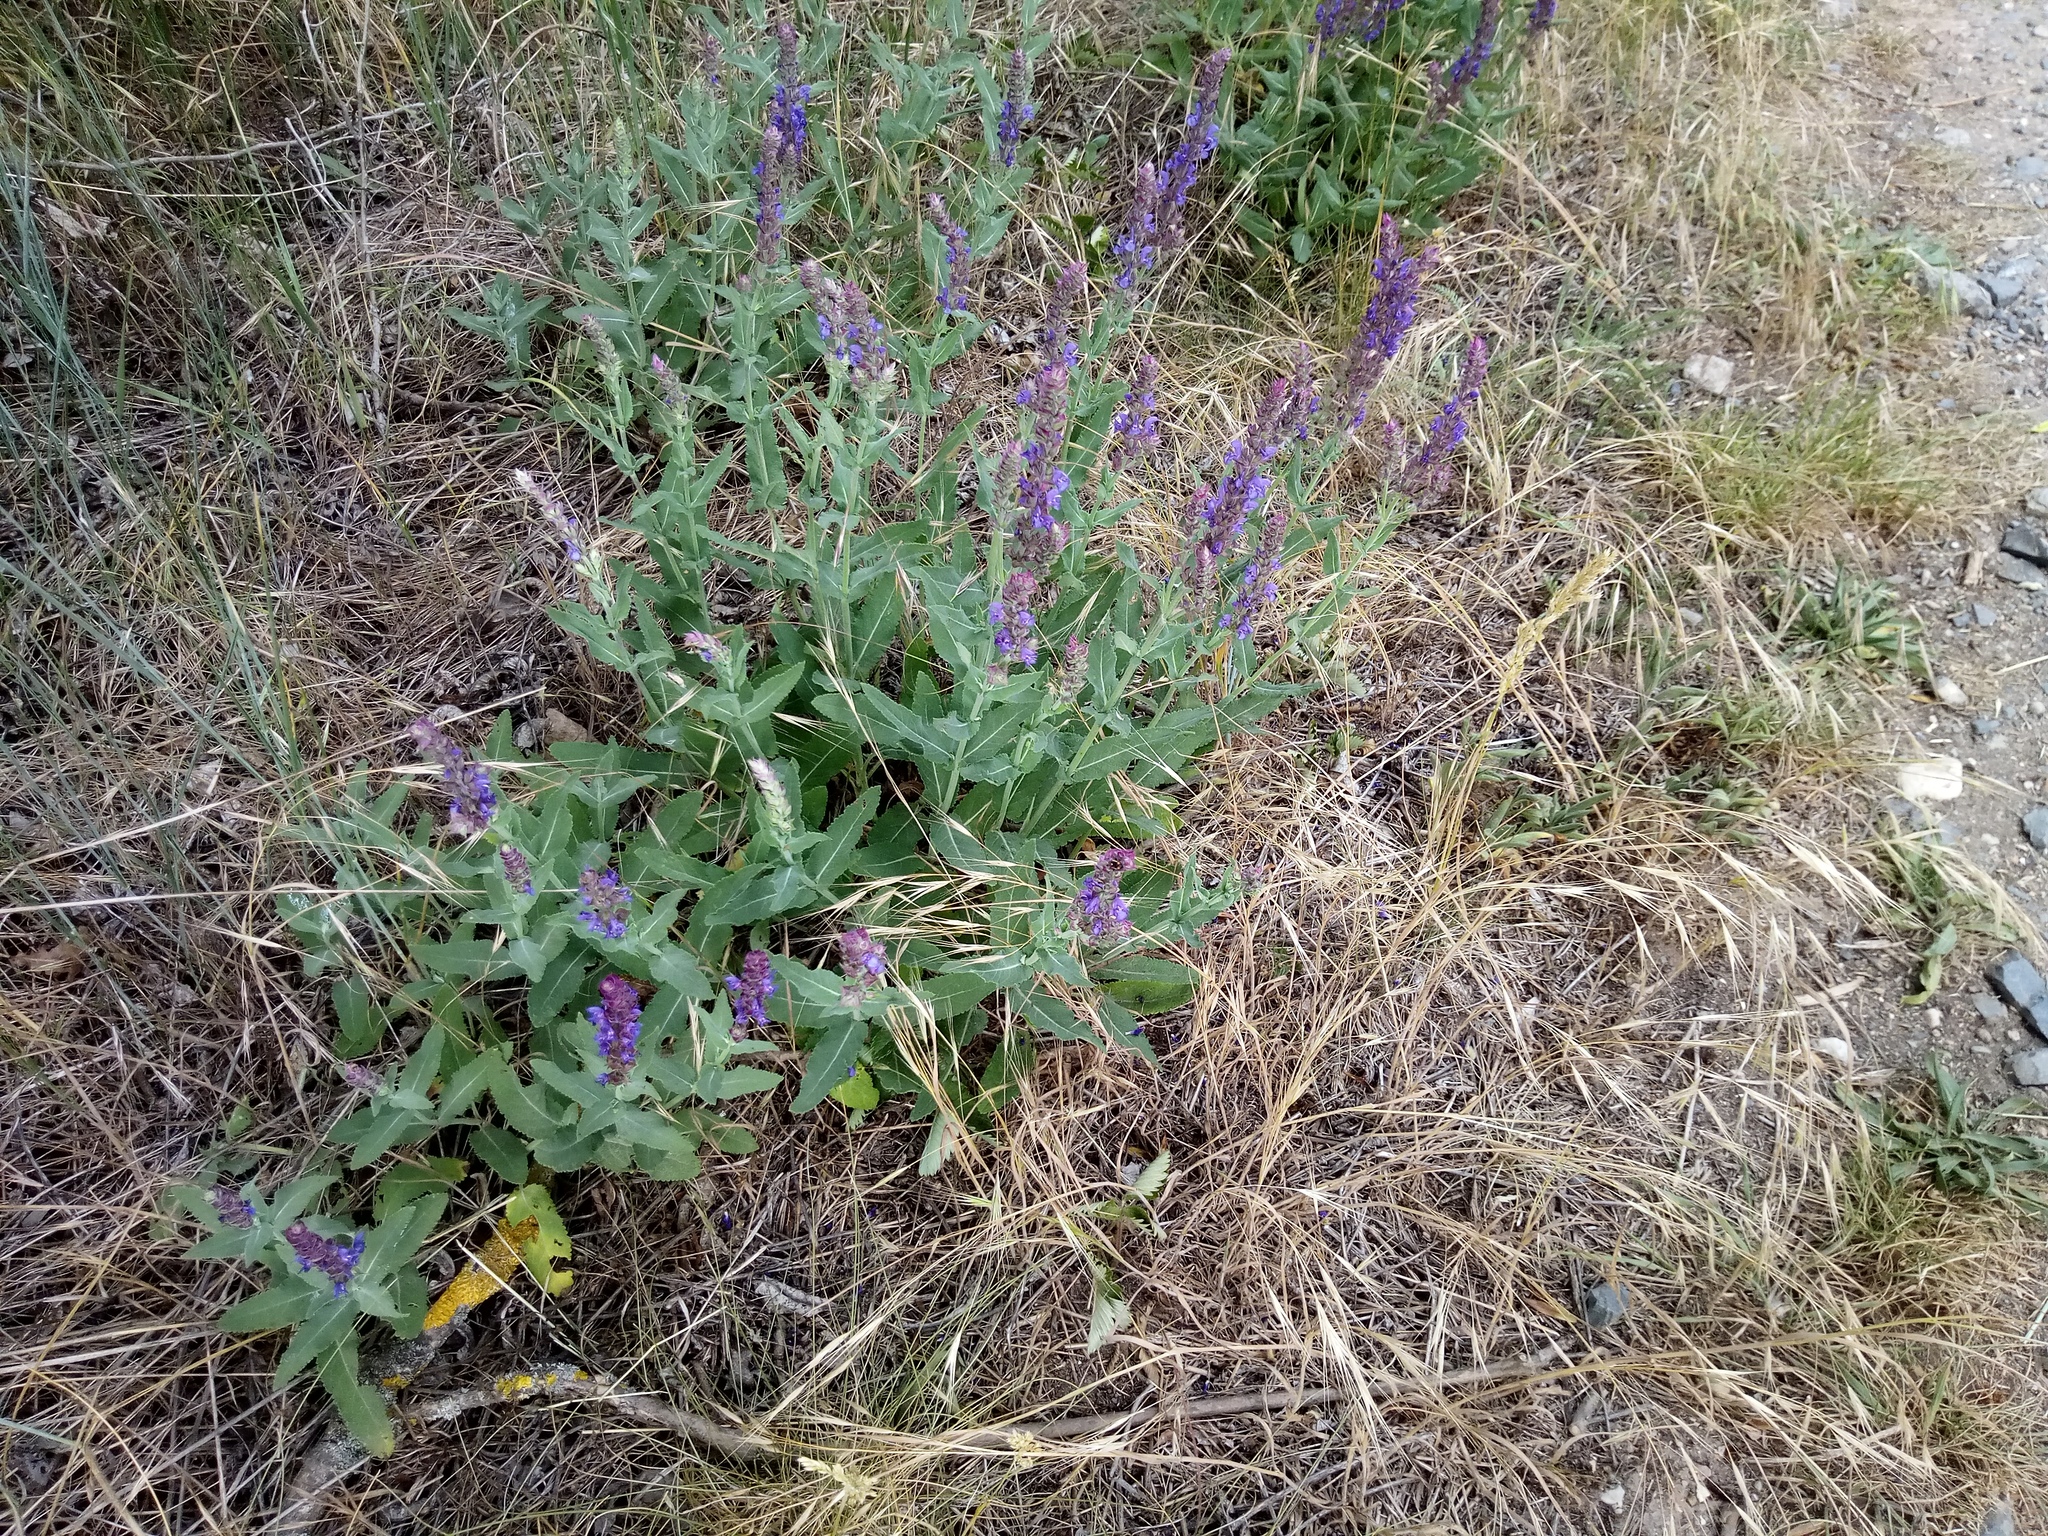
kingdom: Plantae
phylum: Tracheophyta
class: Magnoliopsida
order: Lamiales
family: Lamiaceae
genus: Salvia
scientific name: Salvia nemorosa
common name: Balkan clary
